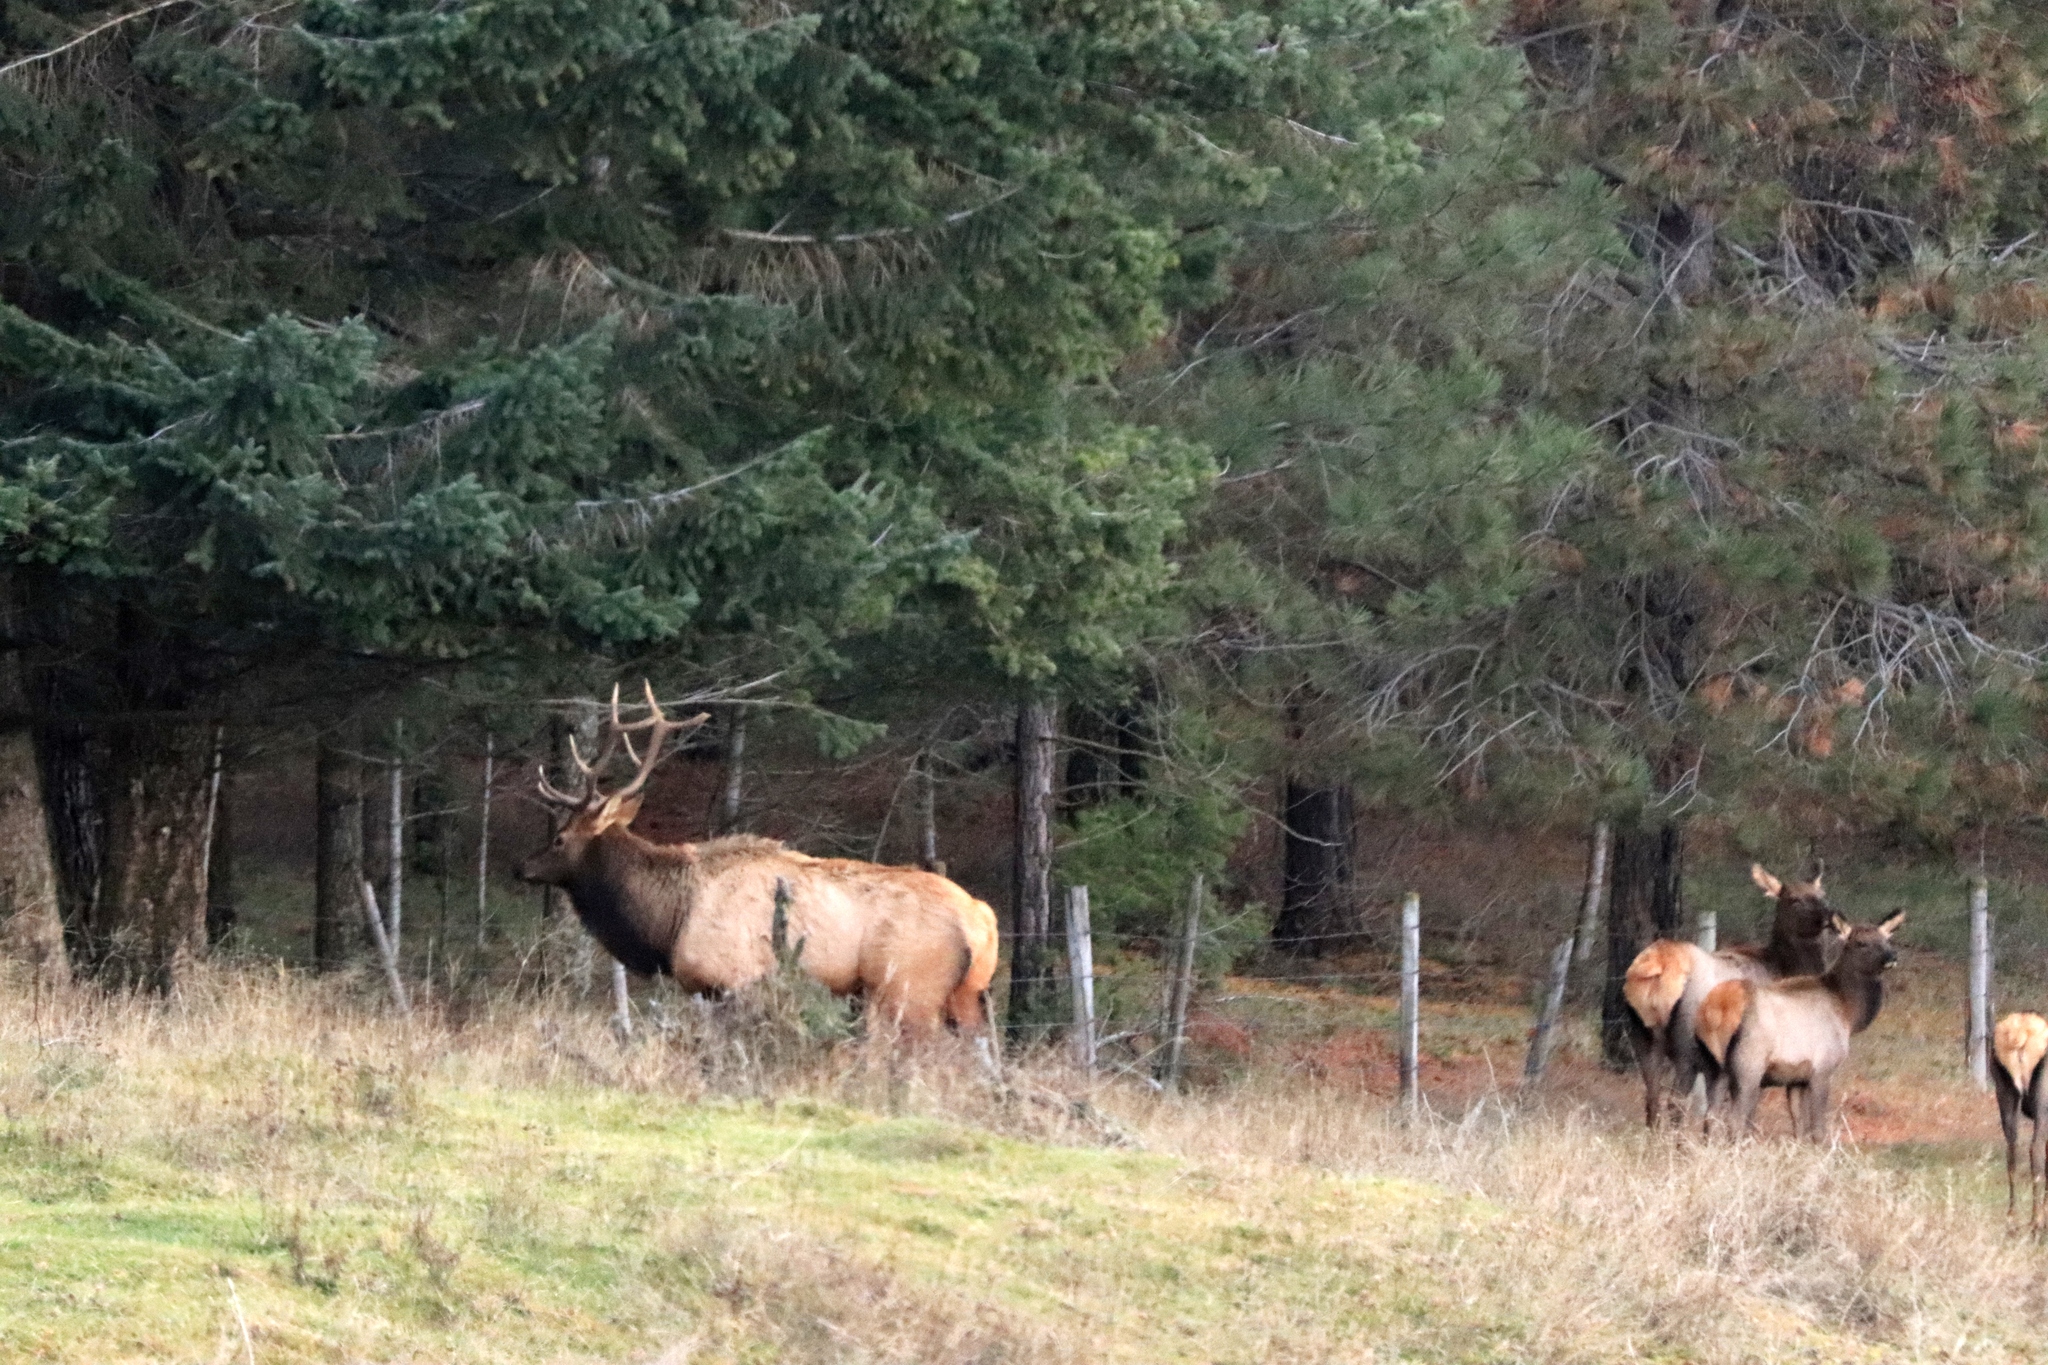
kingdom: Animalia
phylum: Chordata
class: Mammalia
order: Artiodactyla
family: Cervidae
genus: Cervus
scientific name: Cervus elaphus
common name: Red deer
